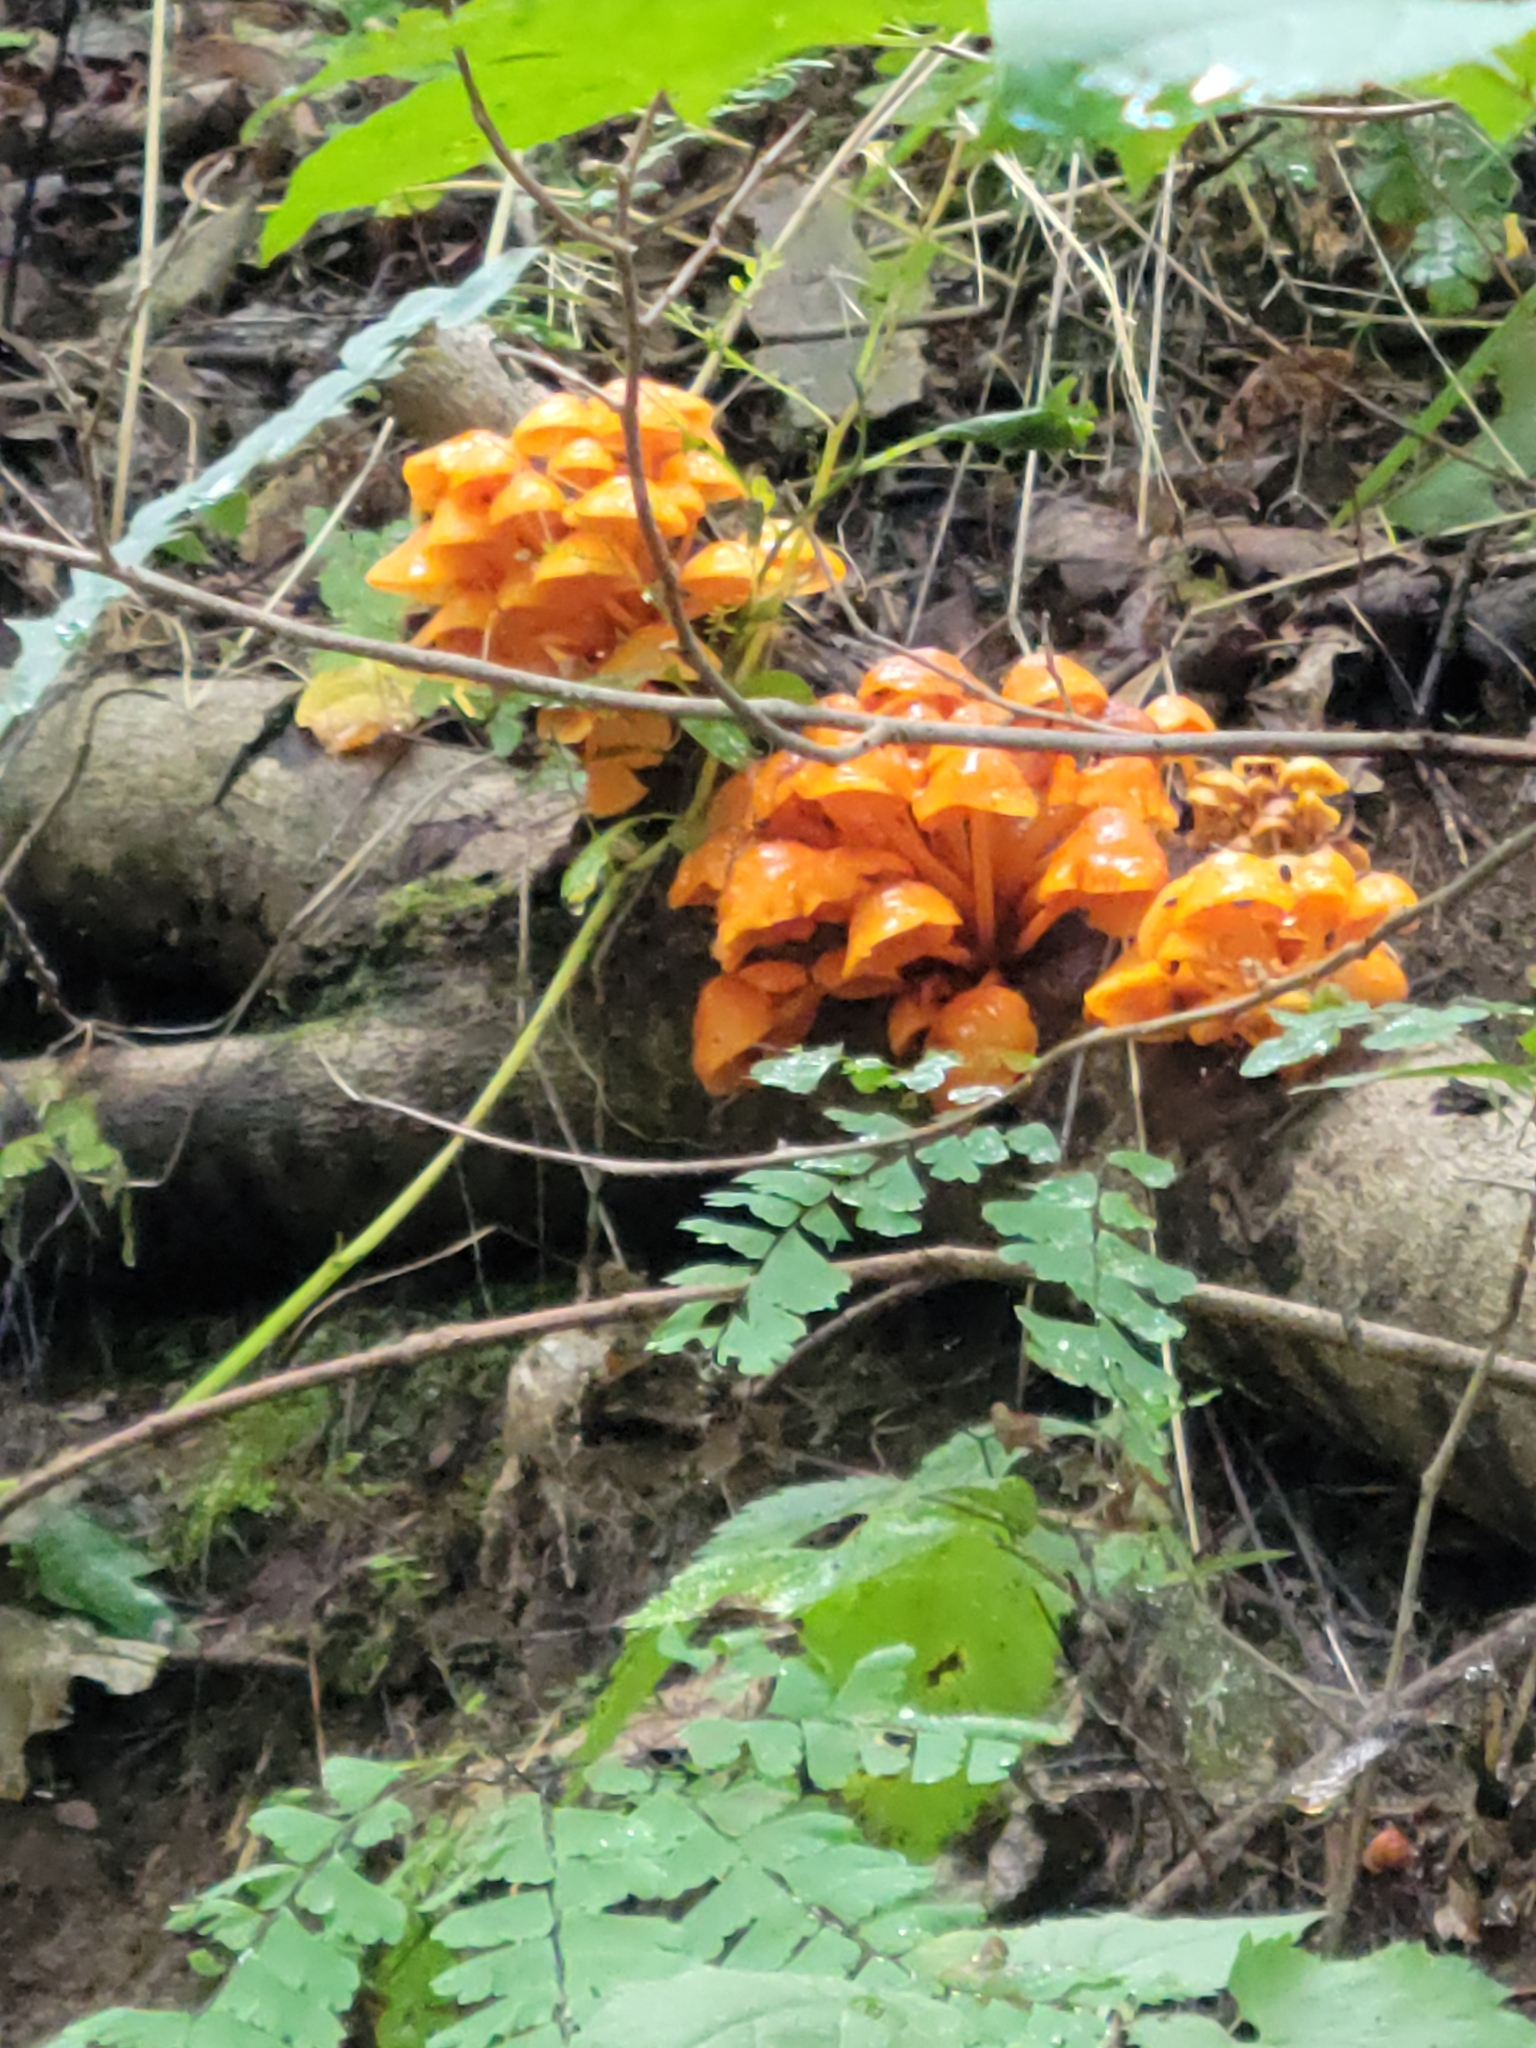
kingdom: Fungi
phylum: Basidiomycota
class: Agaricomycetes
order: Agaricales
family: Omphalotaceae
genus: Omphalotus
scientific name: Omphalotus illudens
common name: Jack o lantern
